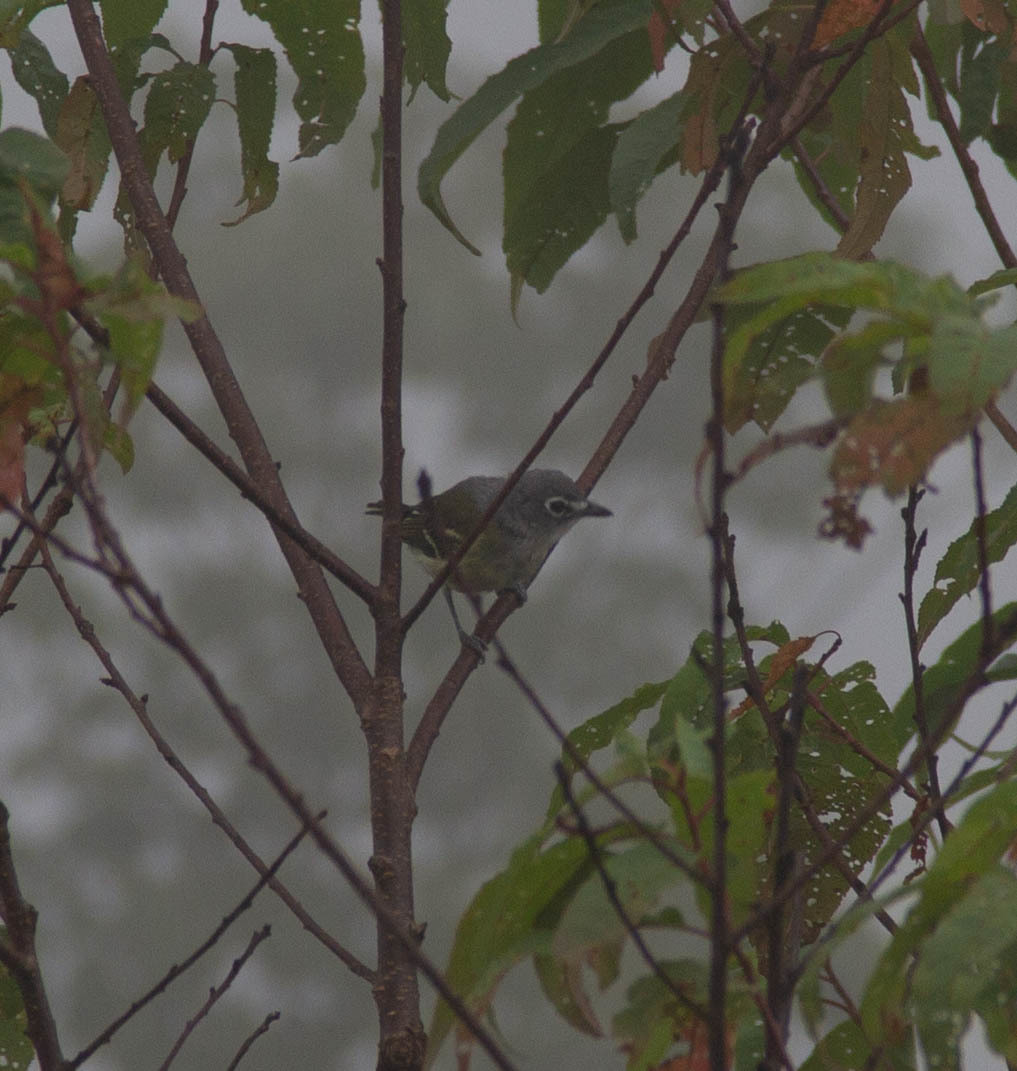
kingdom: Animalia
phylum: Chordata
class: Aves
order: Passeriformes
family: Vireonidae
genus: Vireo
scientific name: Vireo solitarius
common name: Blue-headed vireo
